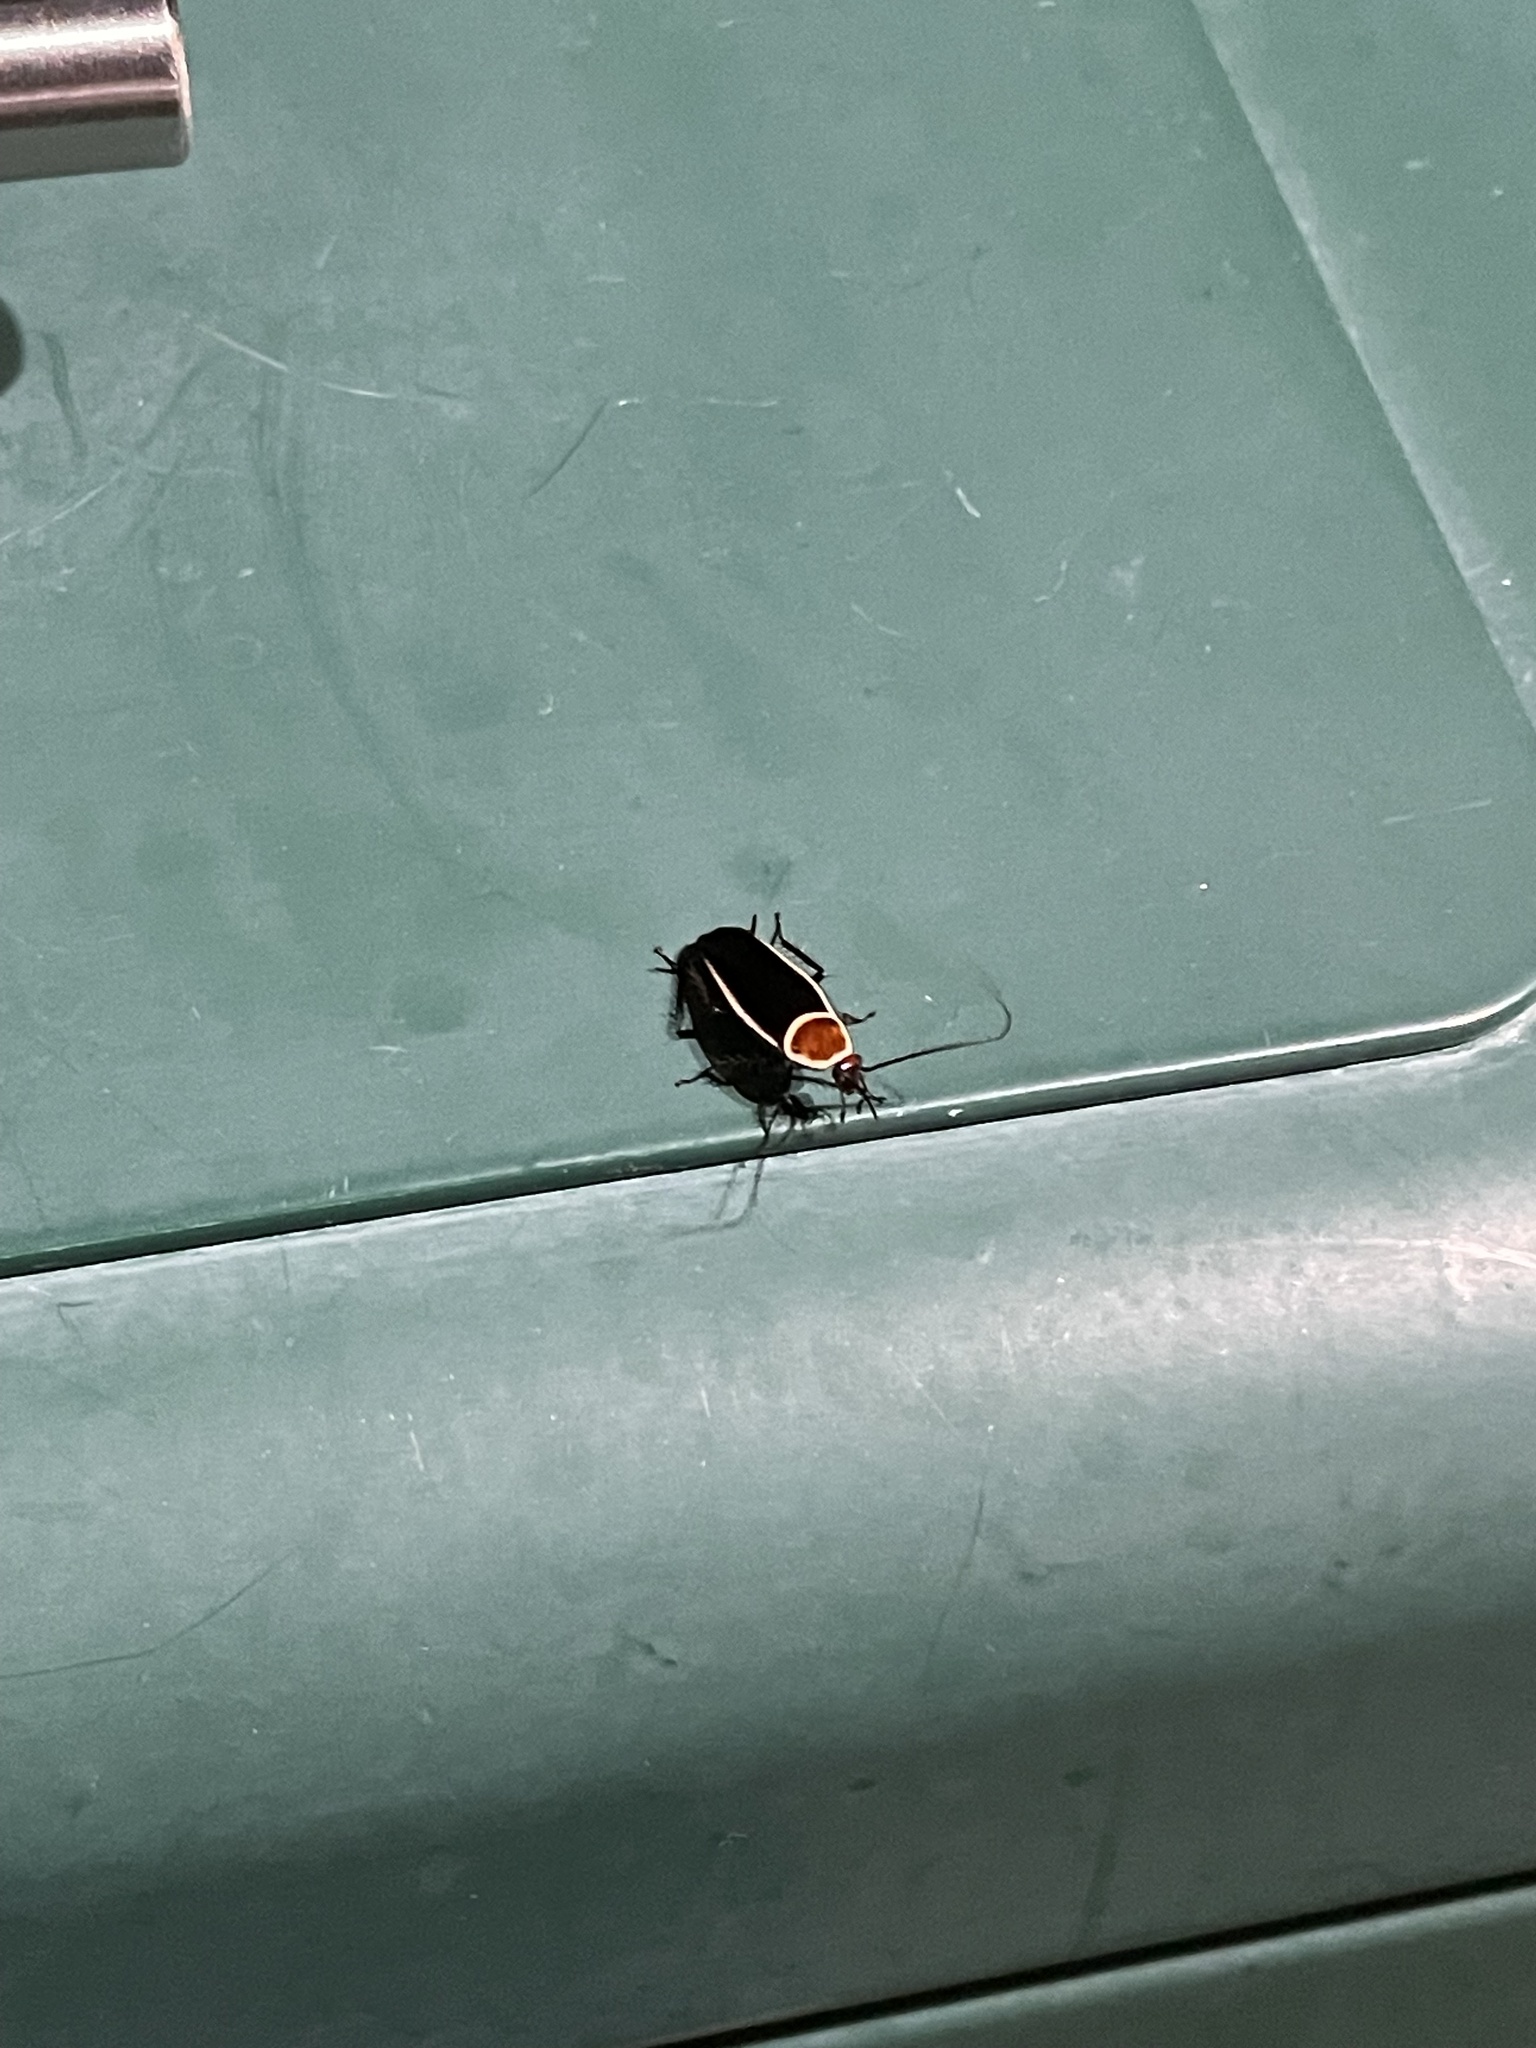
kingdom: Animalia
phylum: Arthropoda
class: Insecta
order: Blattodea
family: Ectobiidae
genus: Pseudomops
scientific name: Pseudomops septentrionalis
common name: Pale-bordered field cockroach
